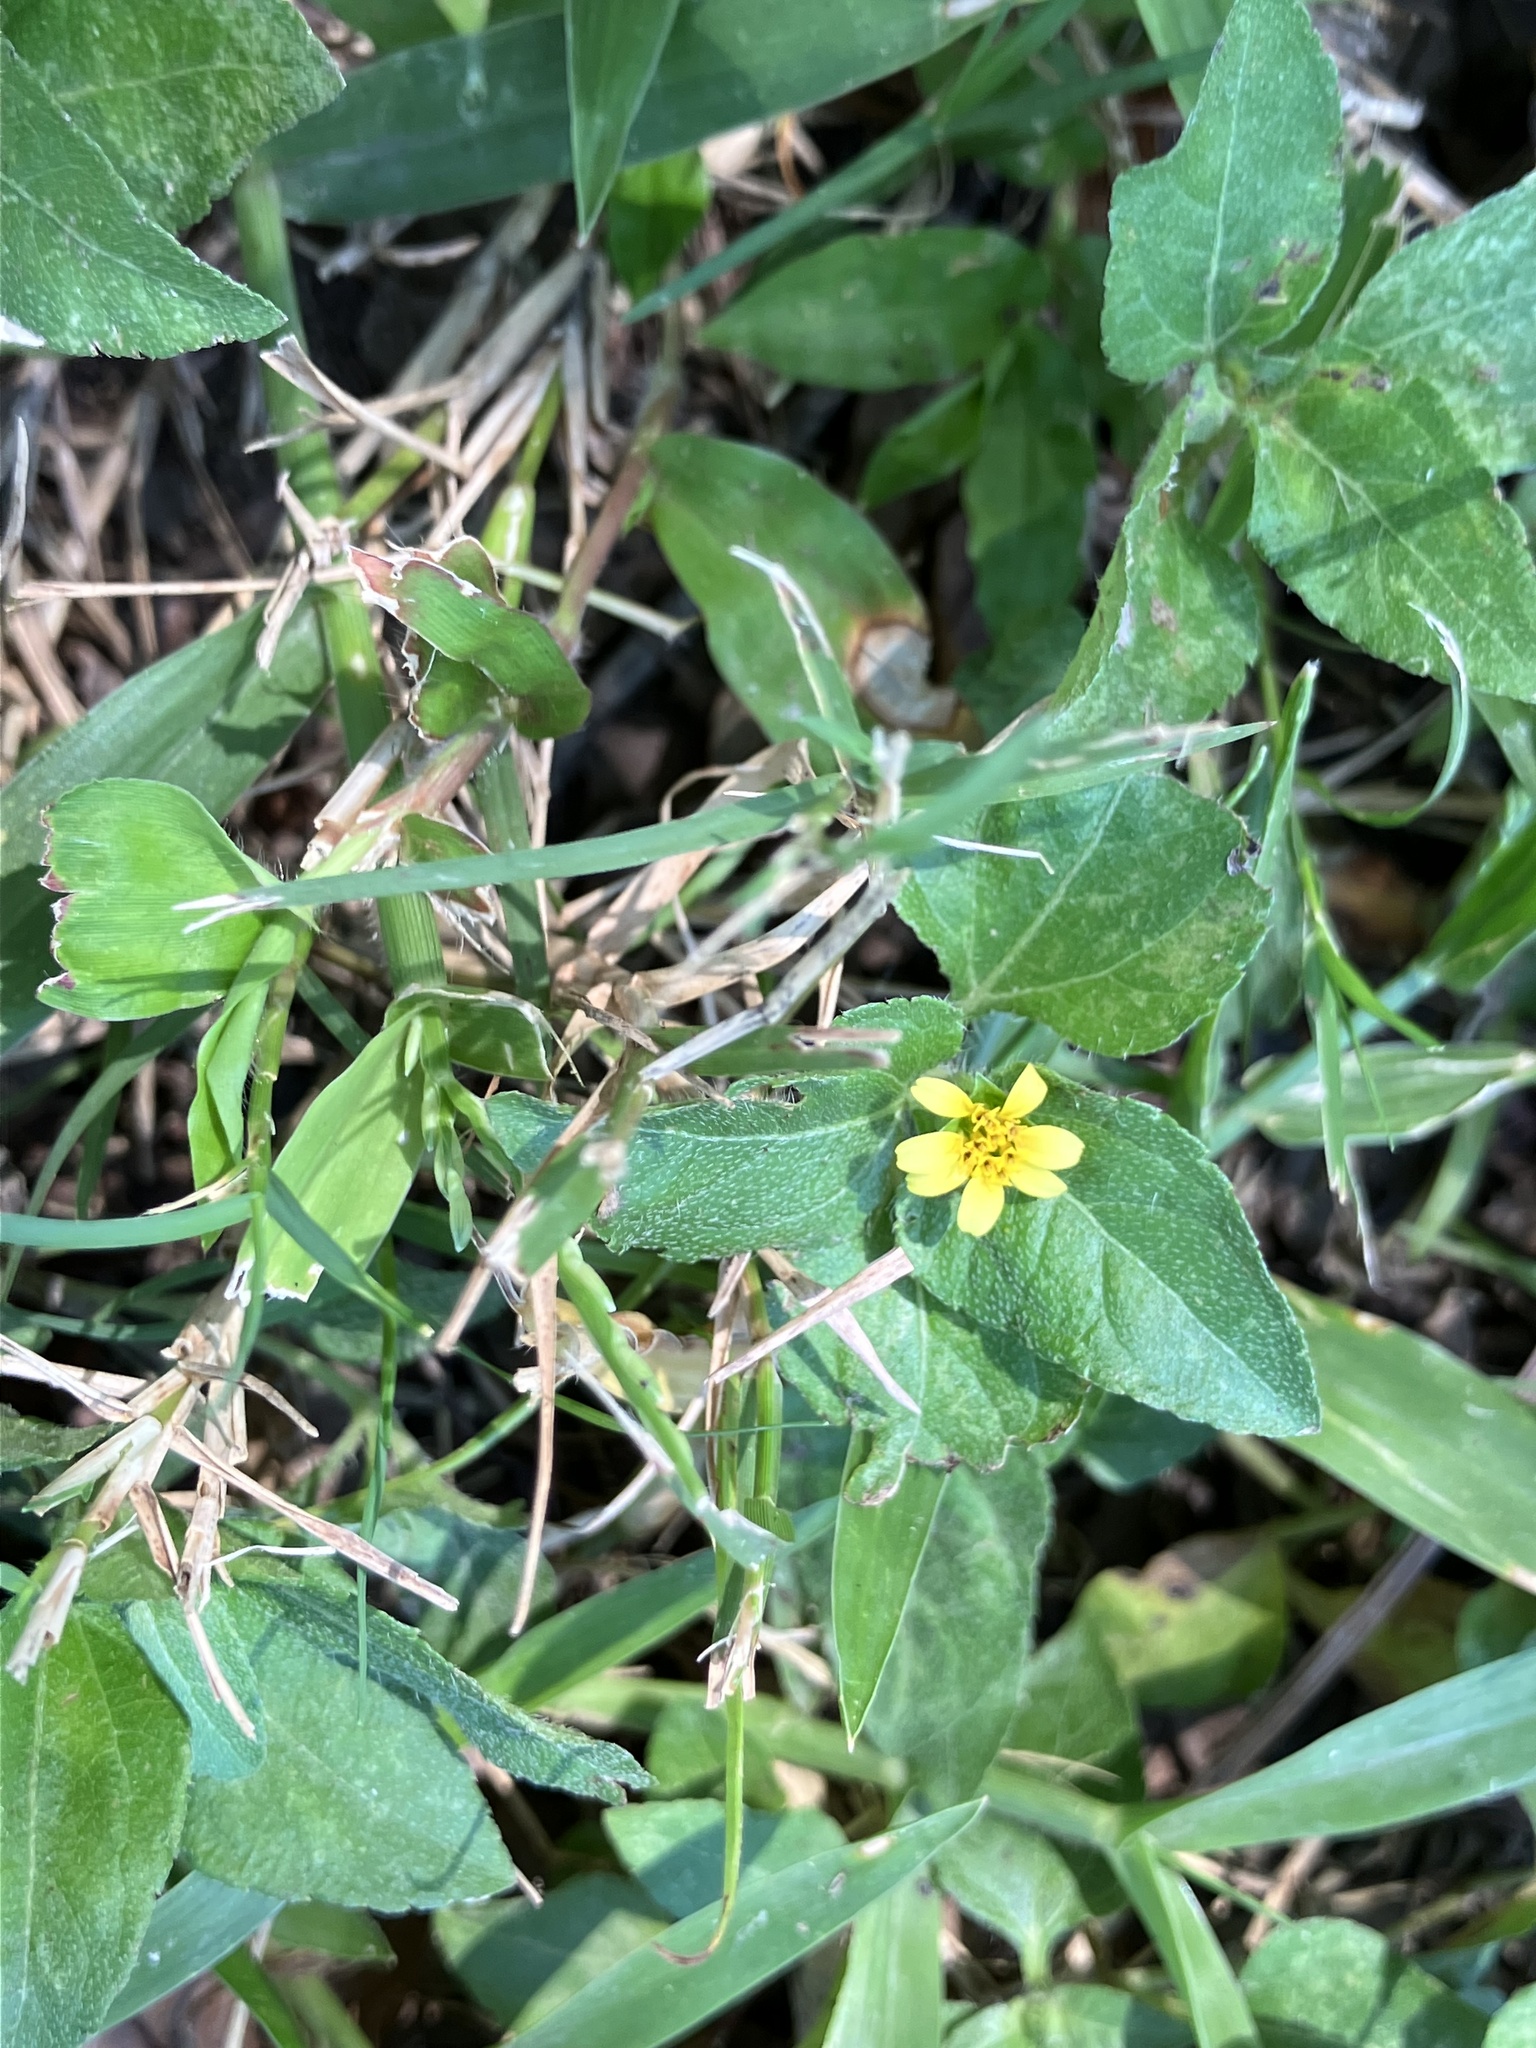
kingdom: Plantae
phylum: Tracheophyta
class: Magnoliopsida
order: Asterales
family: Asteraceae
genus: Calyptocarpus
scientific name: Calyptocarpus vialis
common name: Straggler daisy
